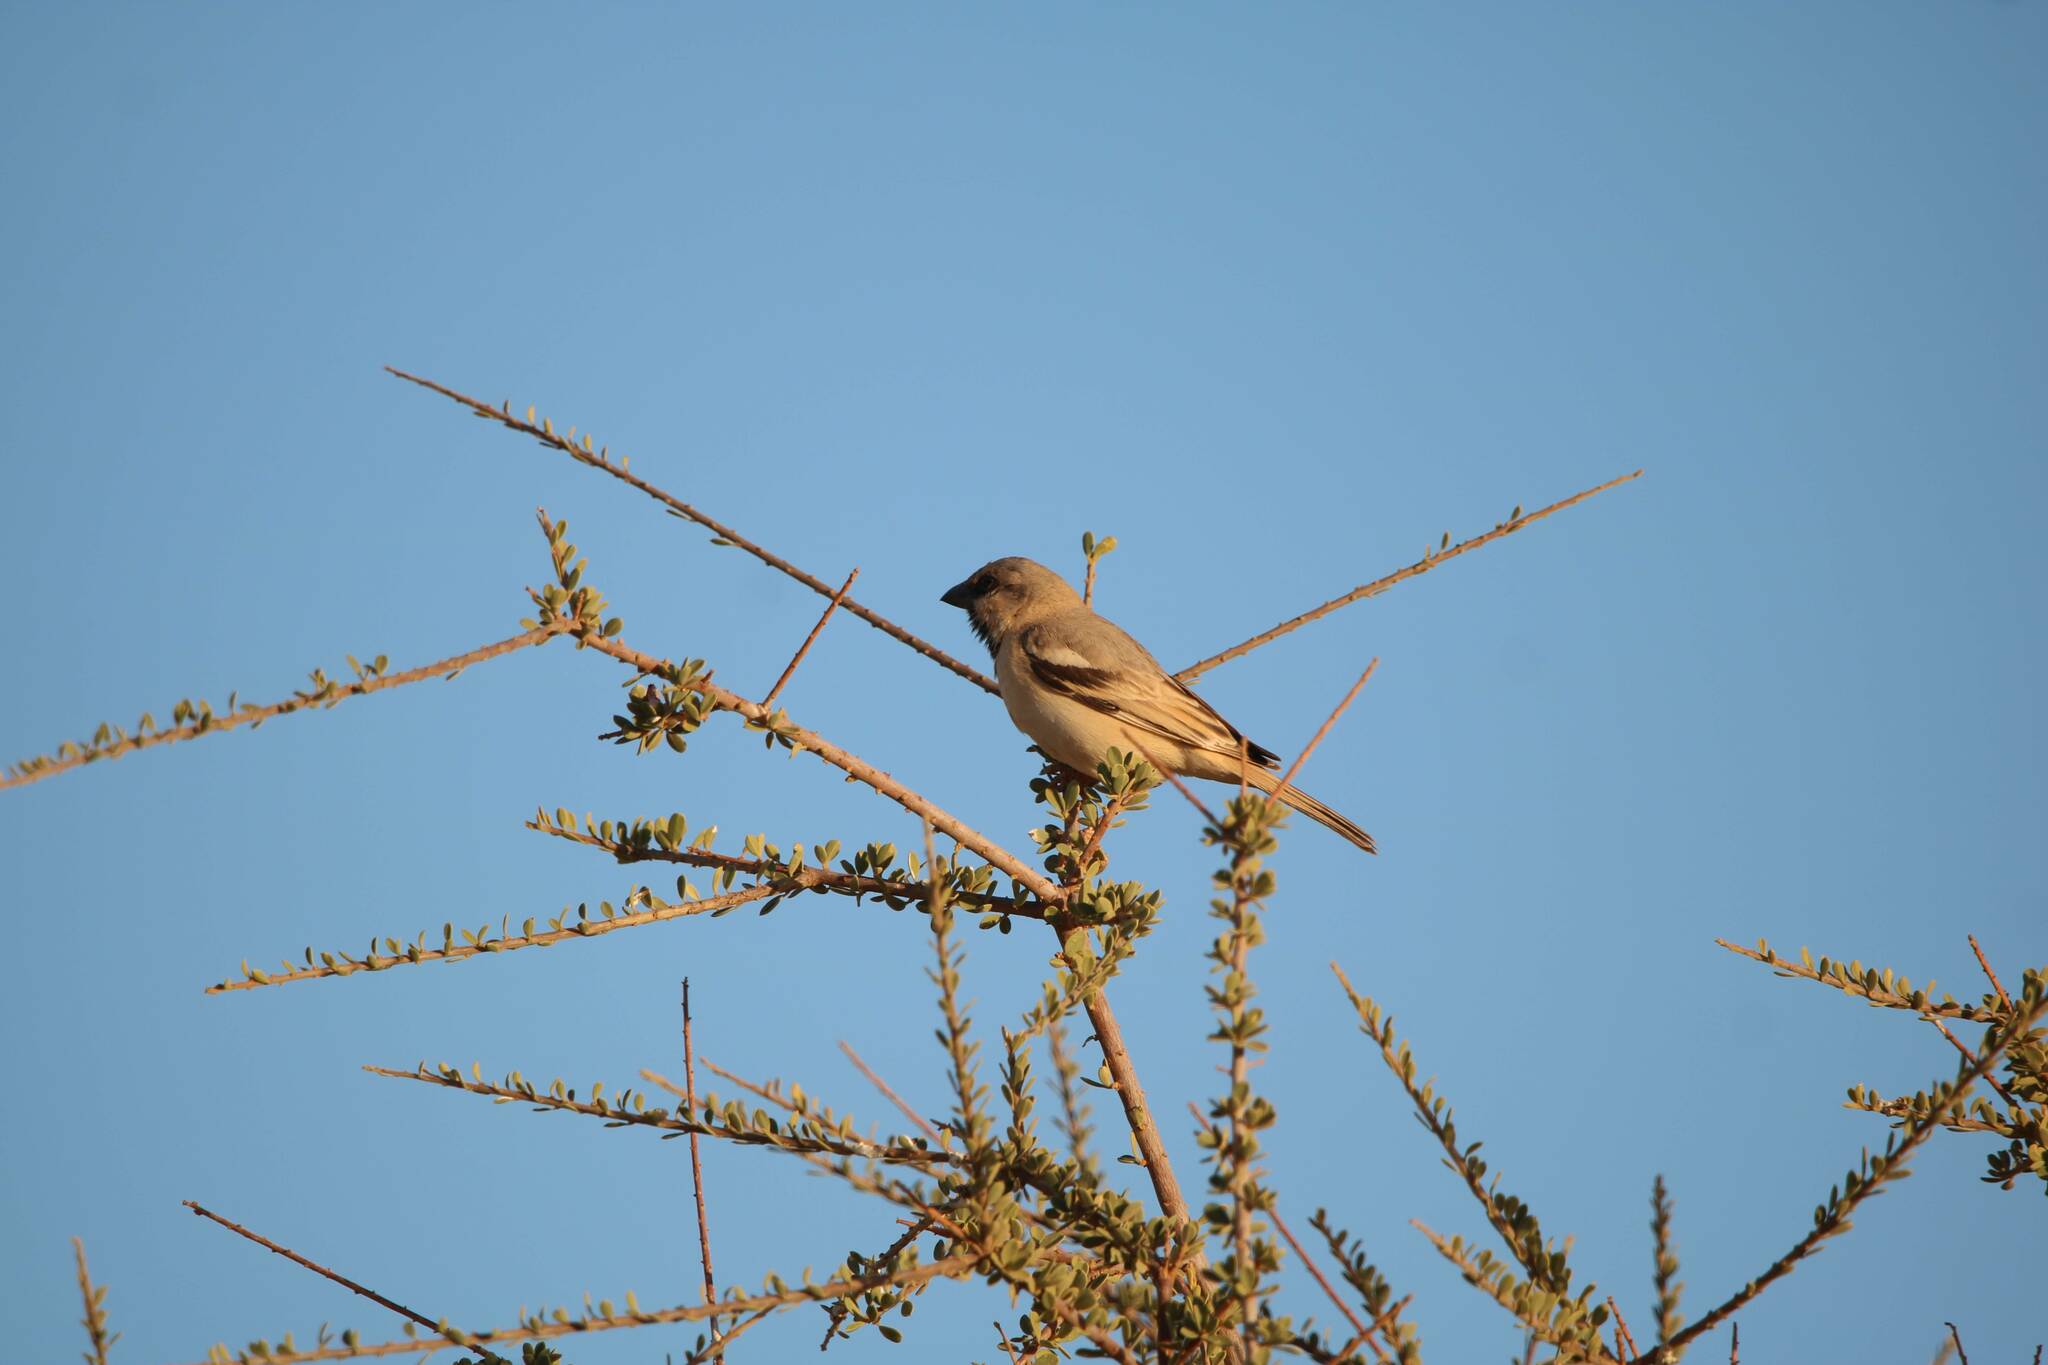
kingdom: Animalia
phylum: Chordata
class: Aves
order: Passeriformes
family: Passeridae
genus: Passer
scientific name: Passer simplex
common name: Desert sparrow
